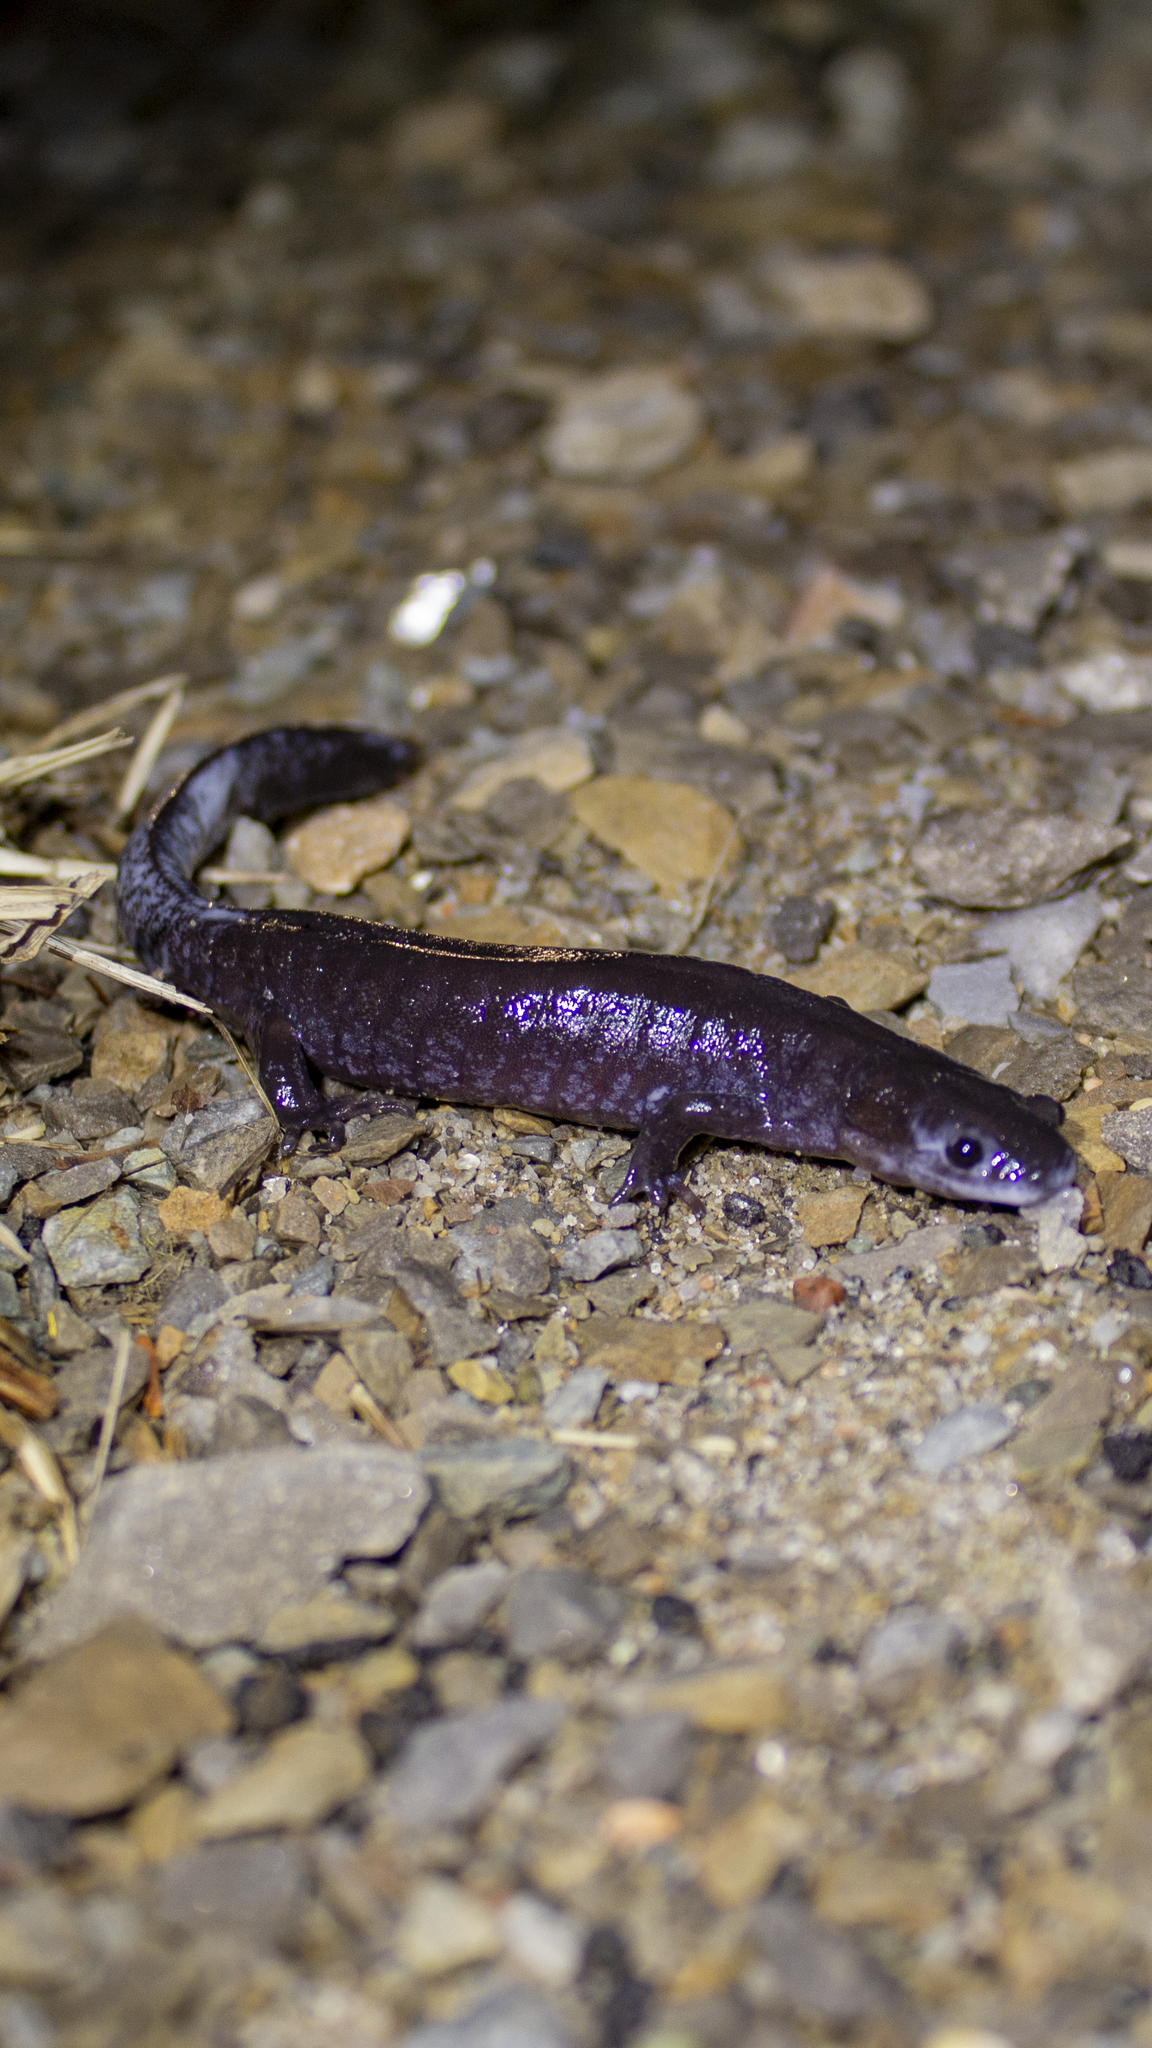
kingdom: Animalia
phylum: Chordata
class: Amphibia
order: Caudata
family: Ambystomatidae
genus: Ambystoma
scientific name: Ambystoma laterale
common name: Blue-spotted salamander
